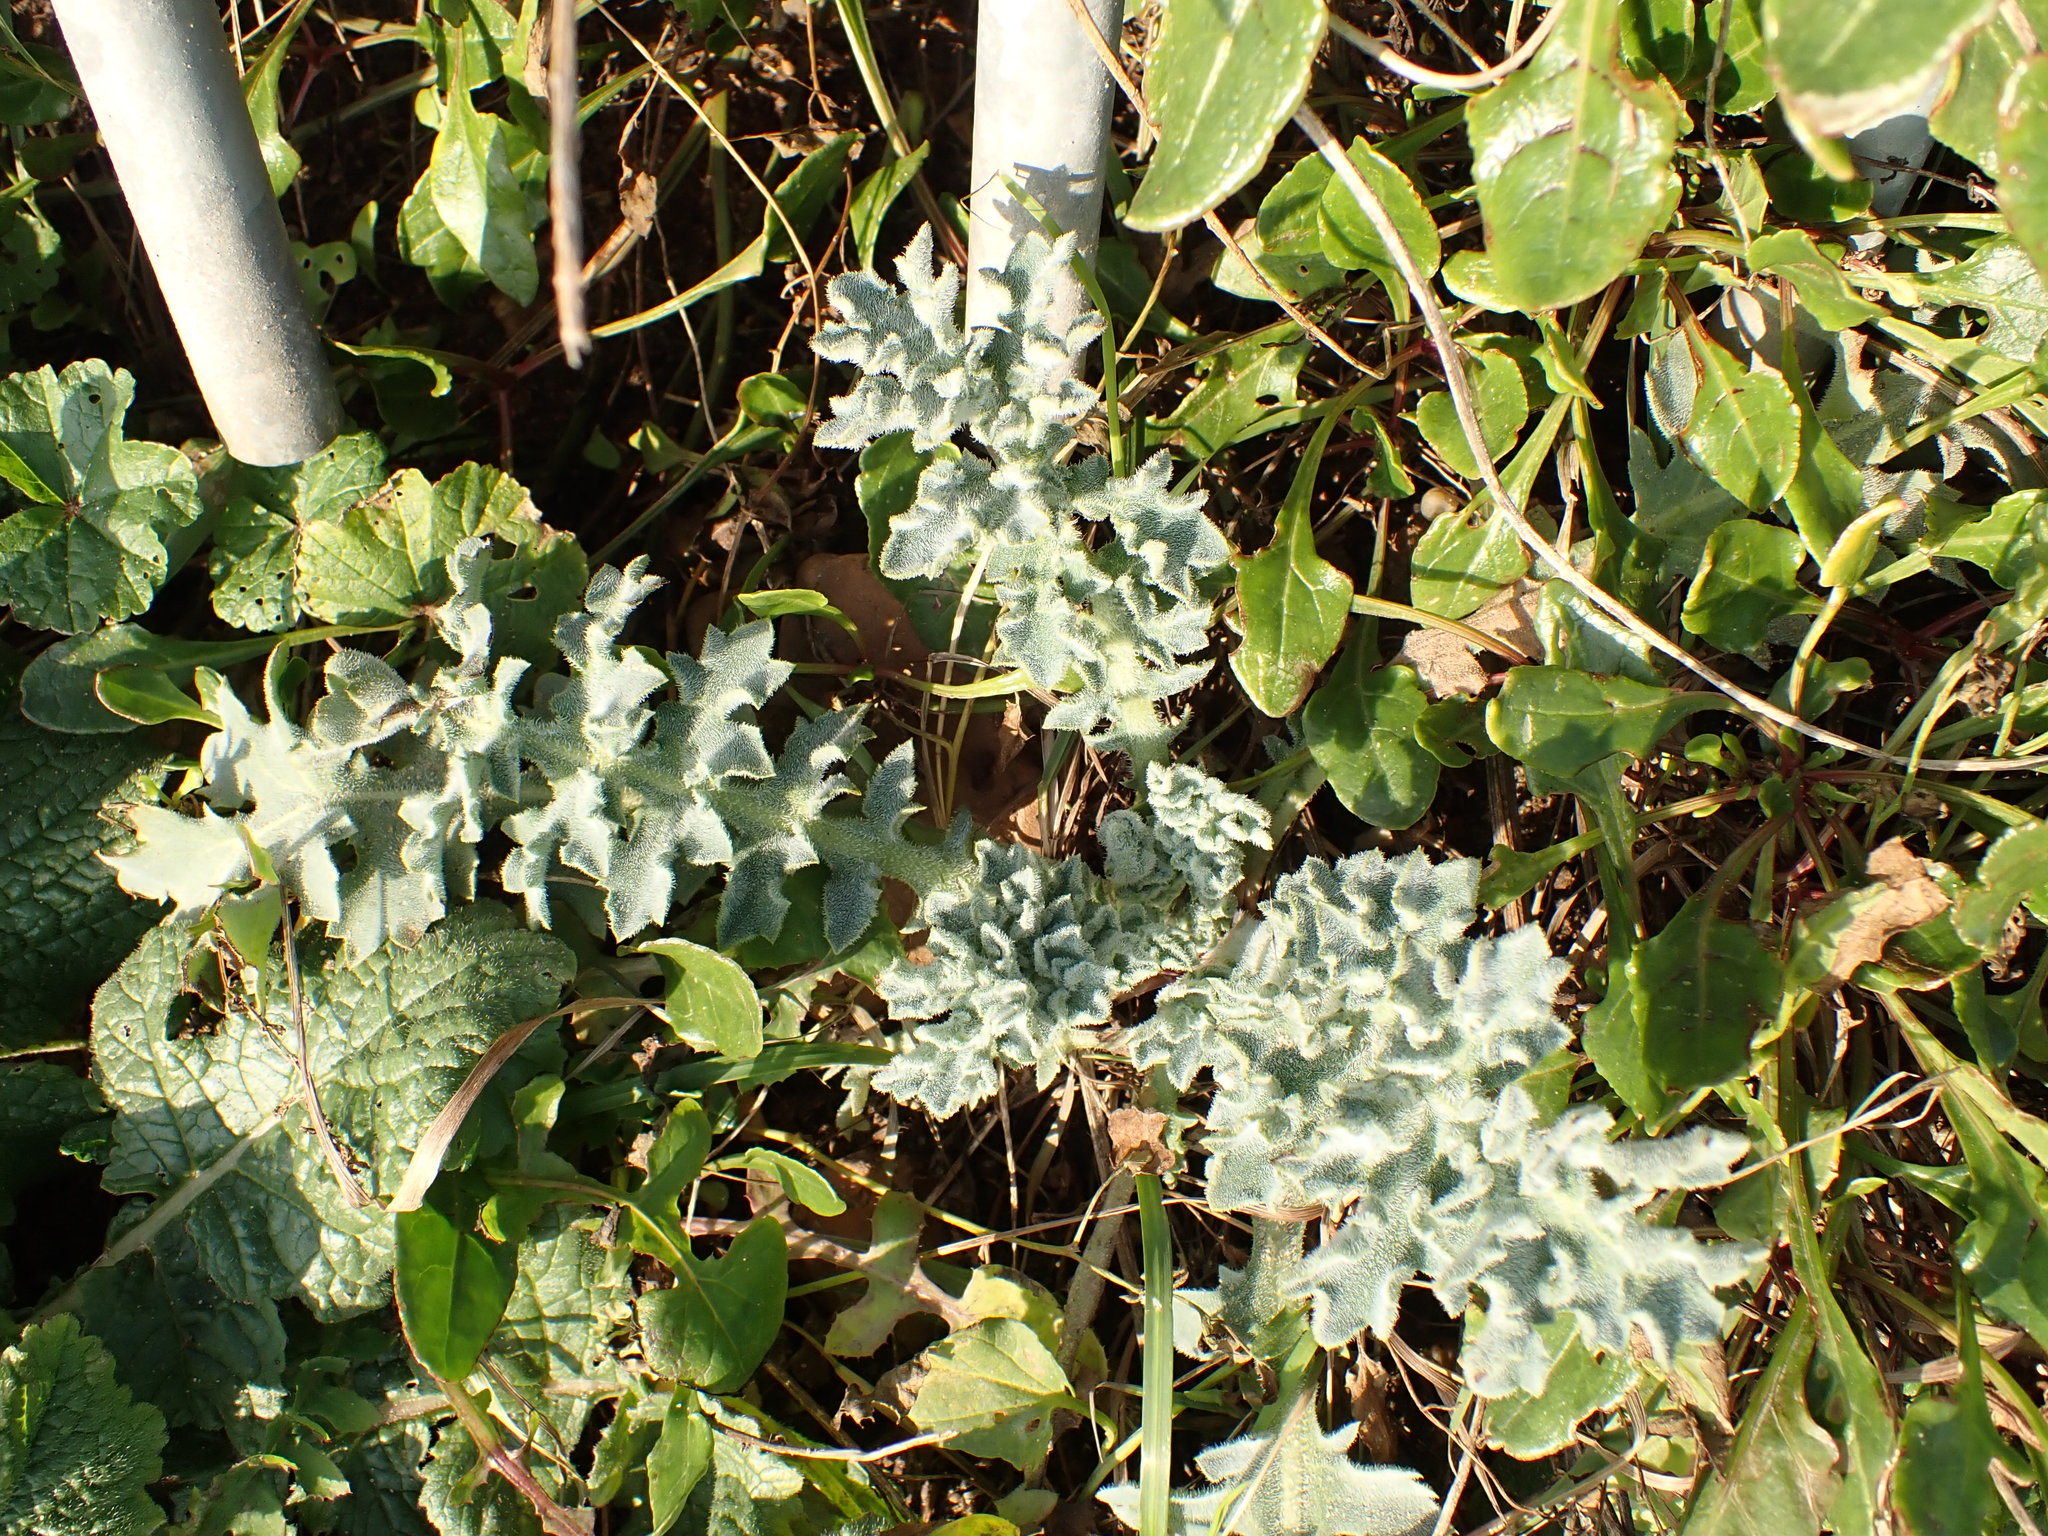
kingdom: Plantae
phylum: Tracheophyta
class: Magnoliopsida
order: Ranunculales
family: Papaveraceae
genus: Glaucium
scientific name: Glaucium flavum
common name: Yellow horned-poppy
